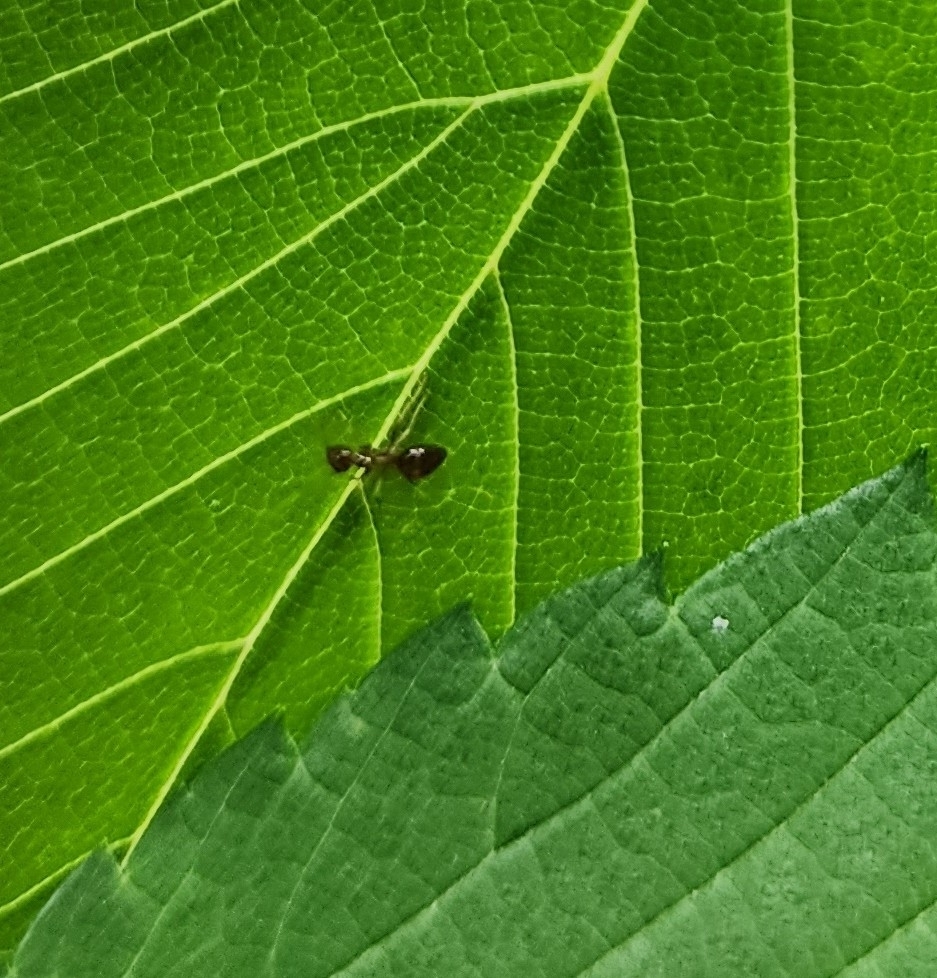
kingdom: Animalia
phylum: Arthropoda
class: Insecta
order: Hymenoptera
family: Formicidae
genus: Prenolepis
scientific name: Prenolepis imparis
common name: Small honey ant
